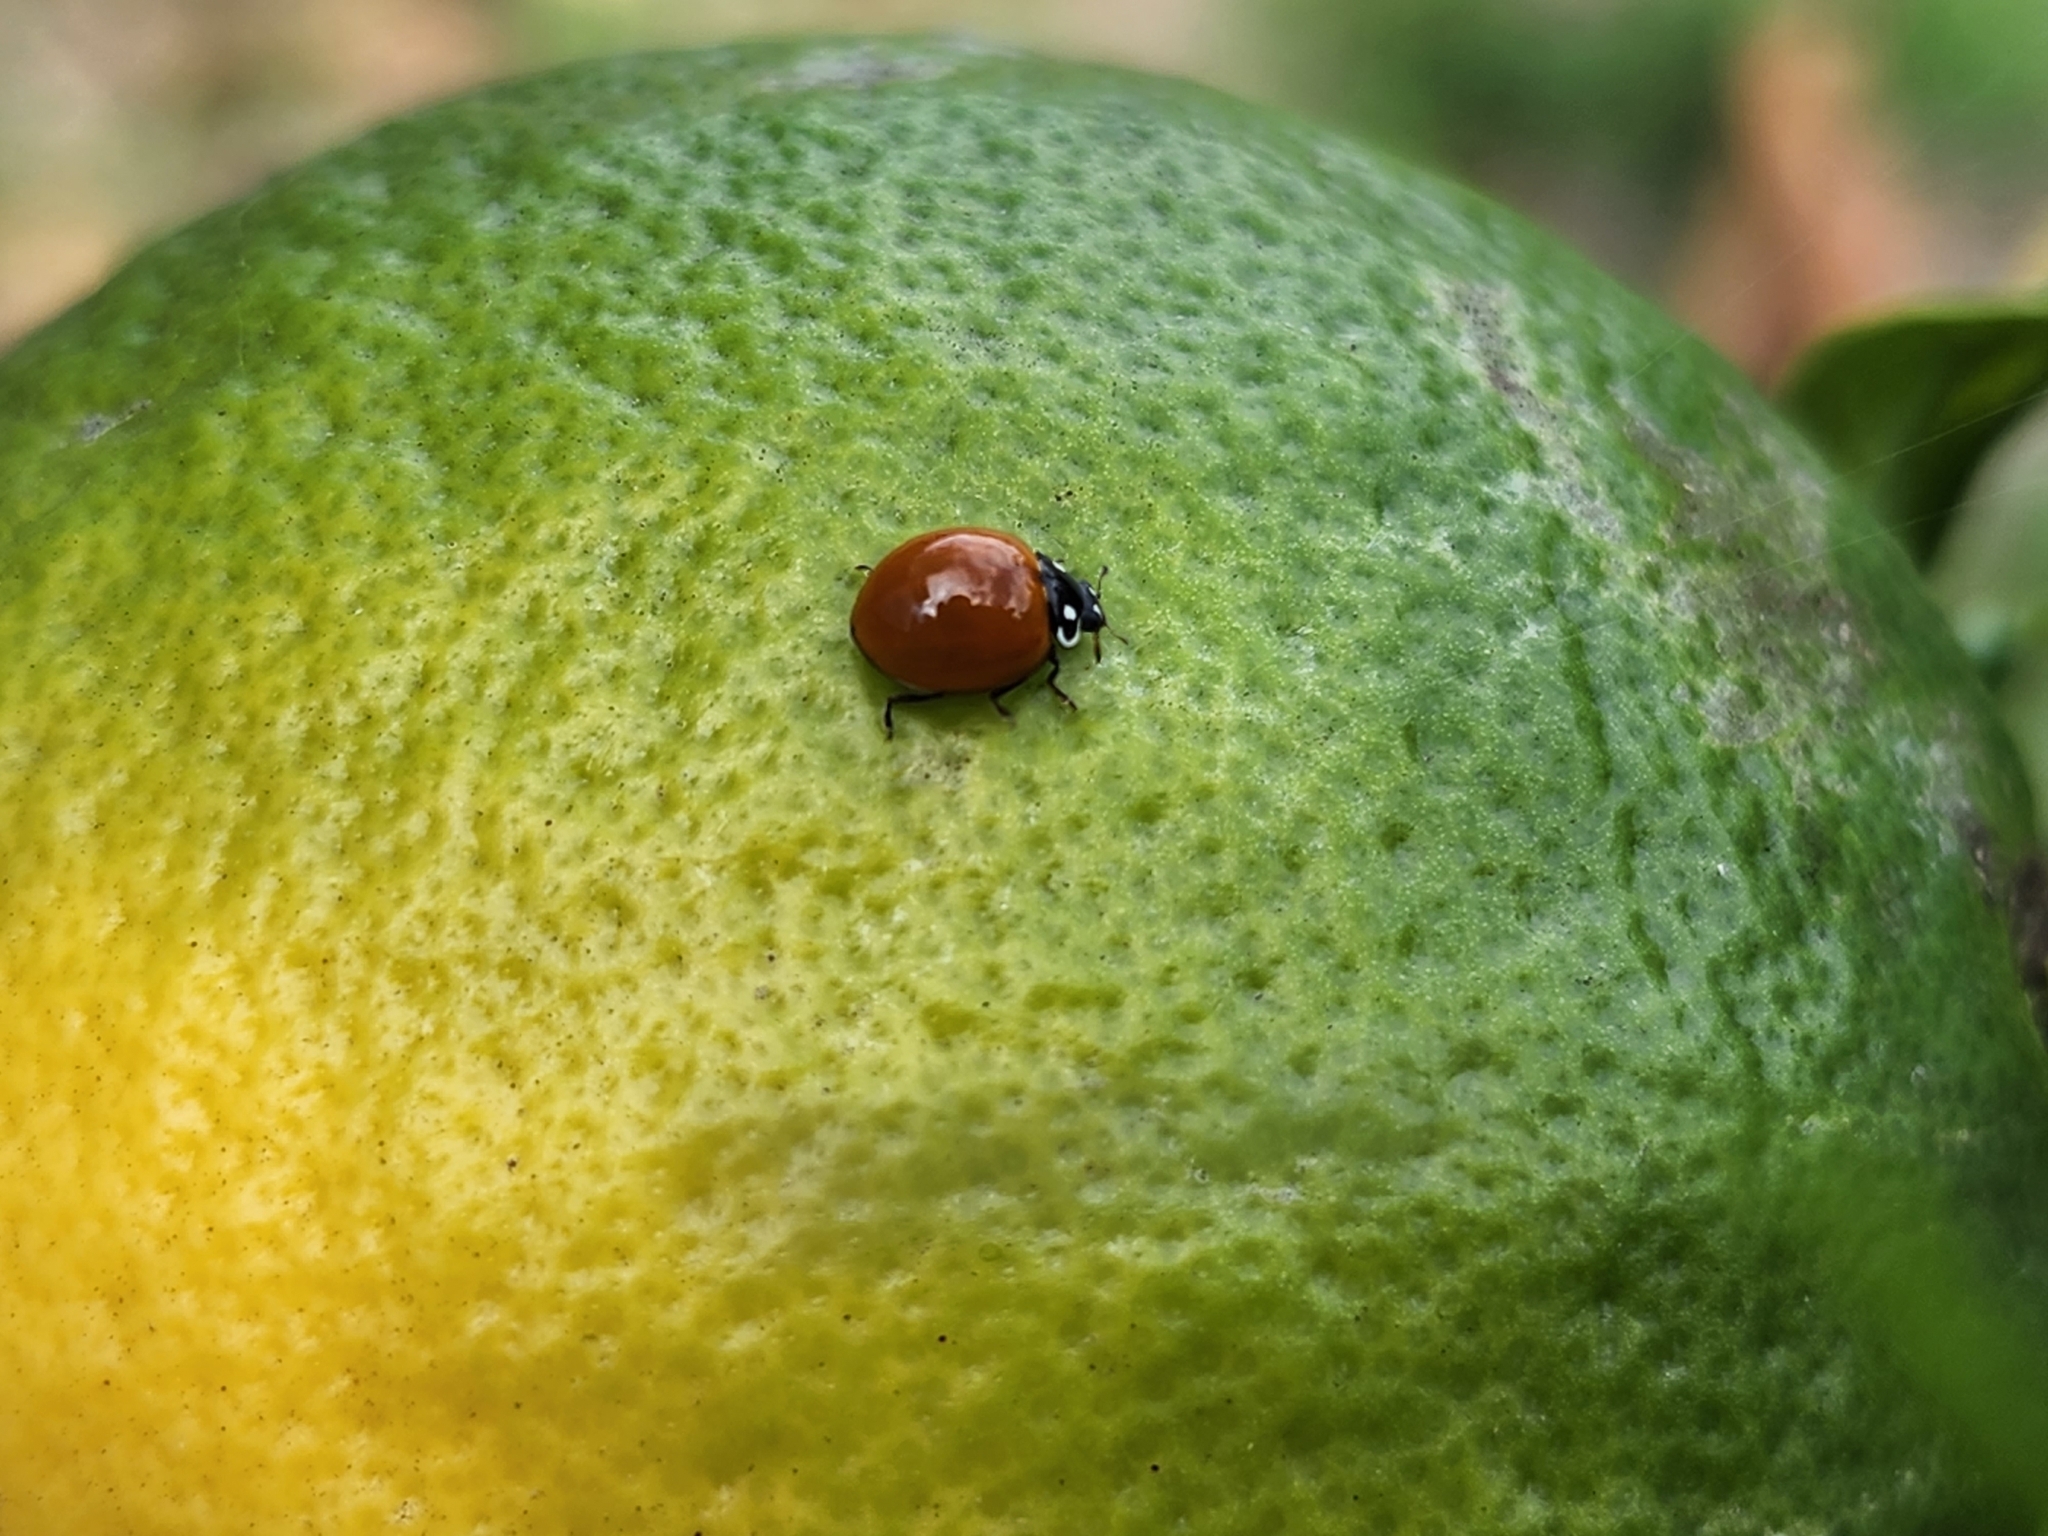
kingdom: Animalia
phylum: Arthropoda
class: Insecta
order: Coleoptera
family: Coccinellidae
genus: Cycloneda
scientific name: Cycloneda sanguinea
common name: Ladybird beetle
